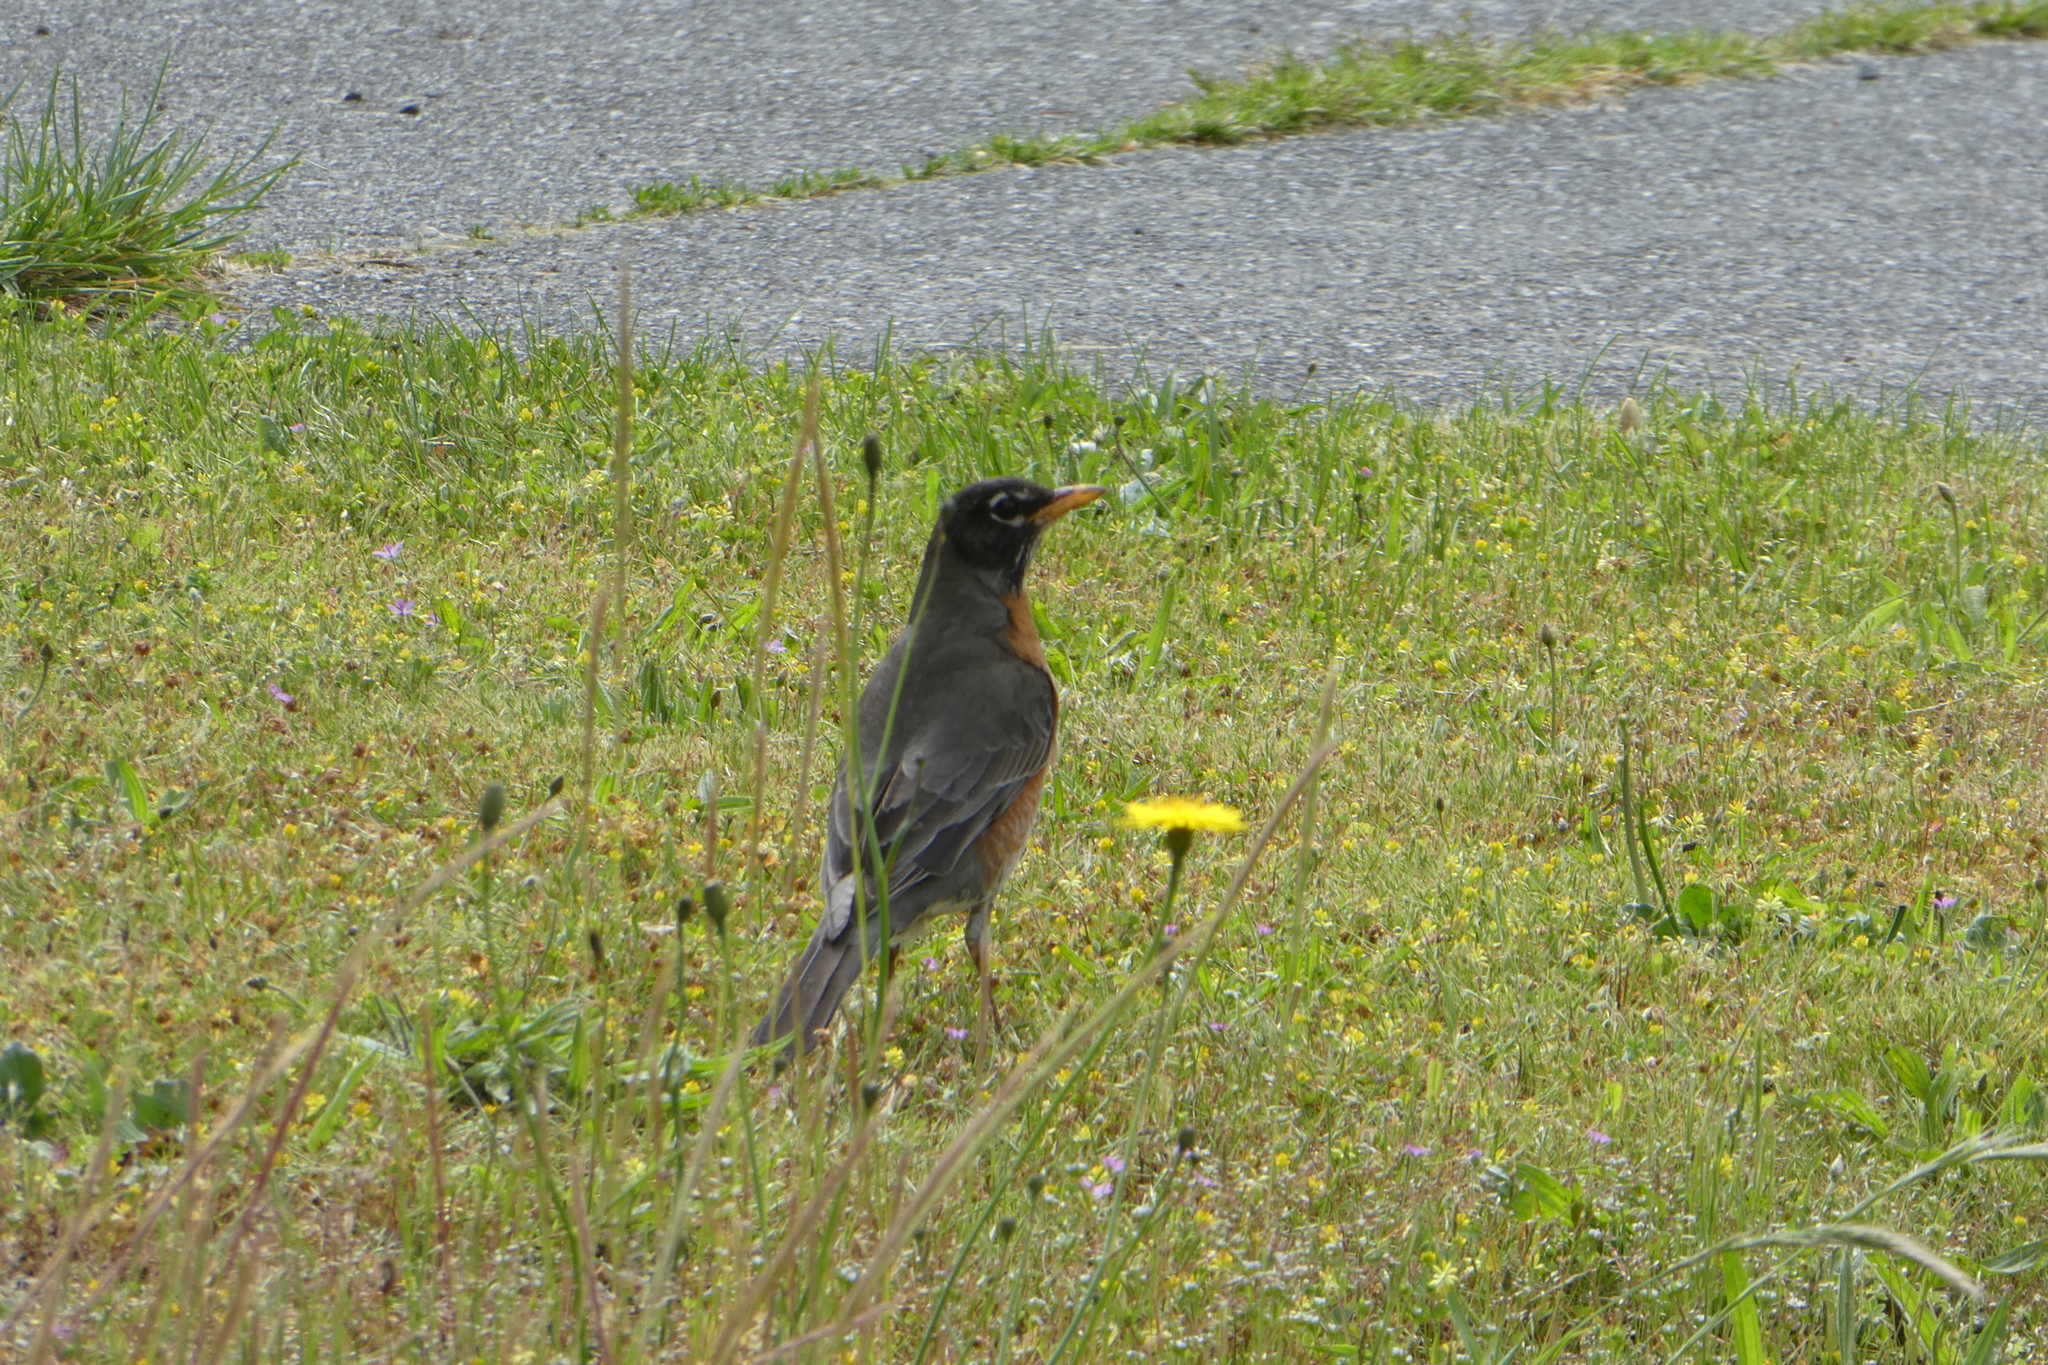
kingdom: Animalia
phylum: Chordata
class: Aves
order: Passeriformes
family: Turdidae
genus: Turdus
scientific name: Turdus migratorius
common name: American robin
